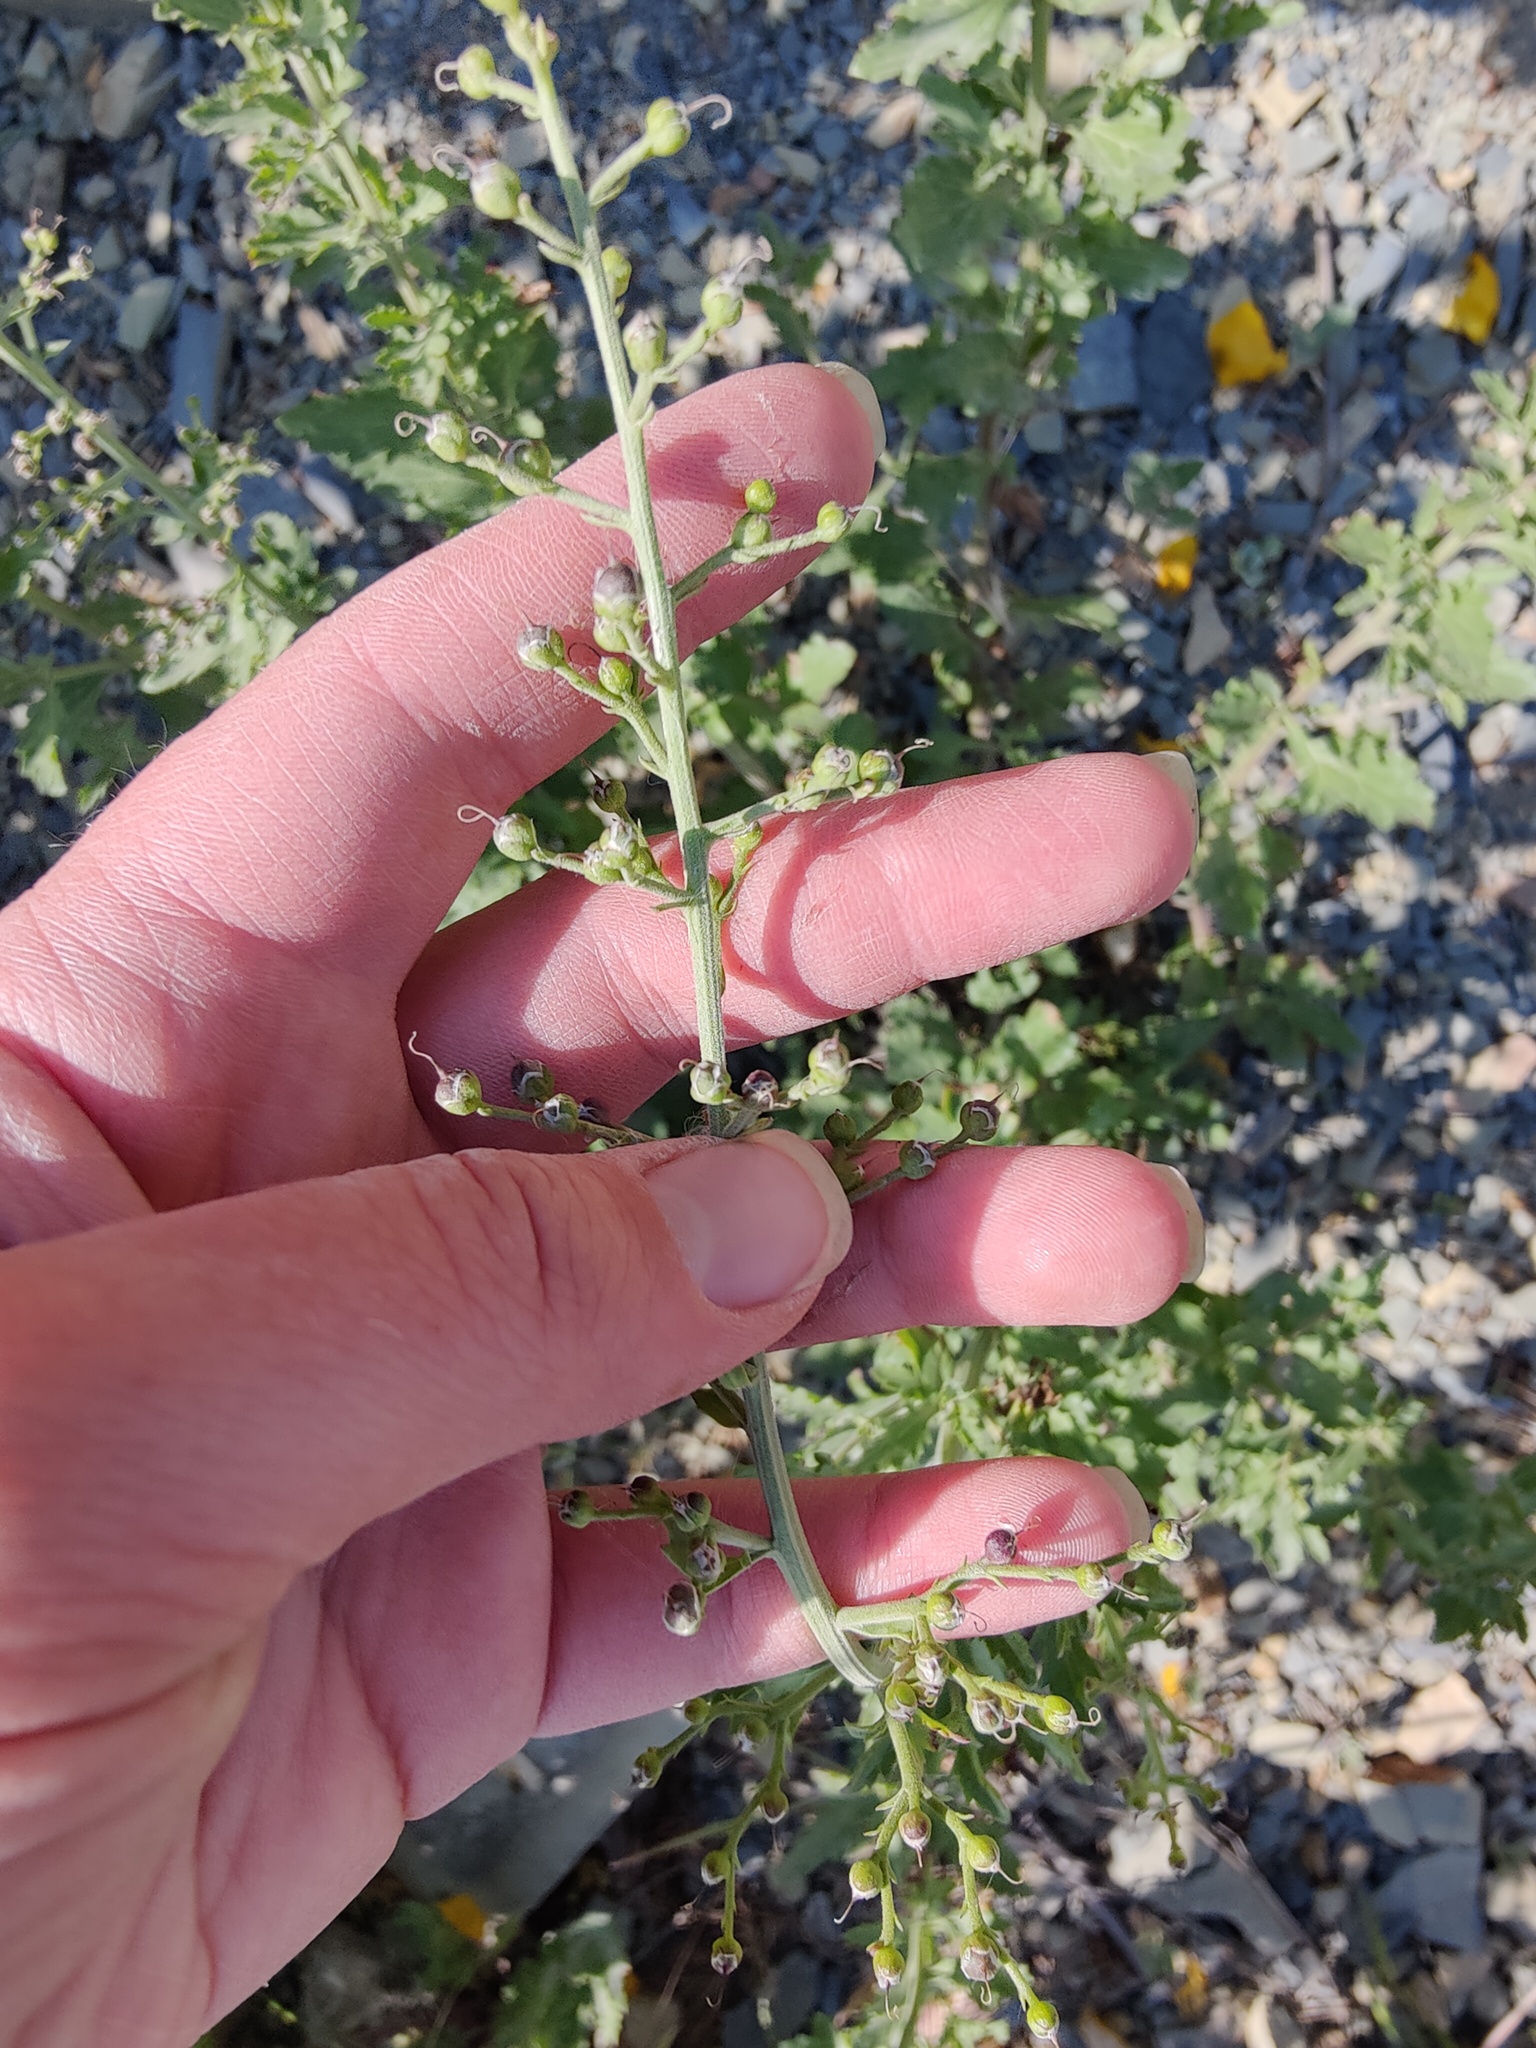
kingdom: Plantae
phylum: Tracheophyta
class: Magnoliopsida
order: Lamiales
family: Scrophulariaceae
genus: Scrophularia
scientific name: Scrophularia rupestris
